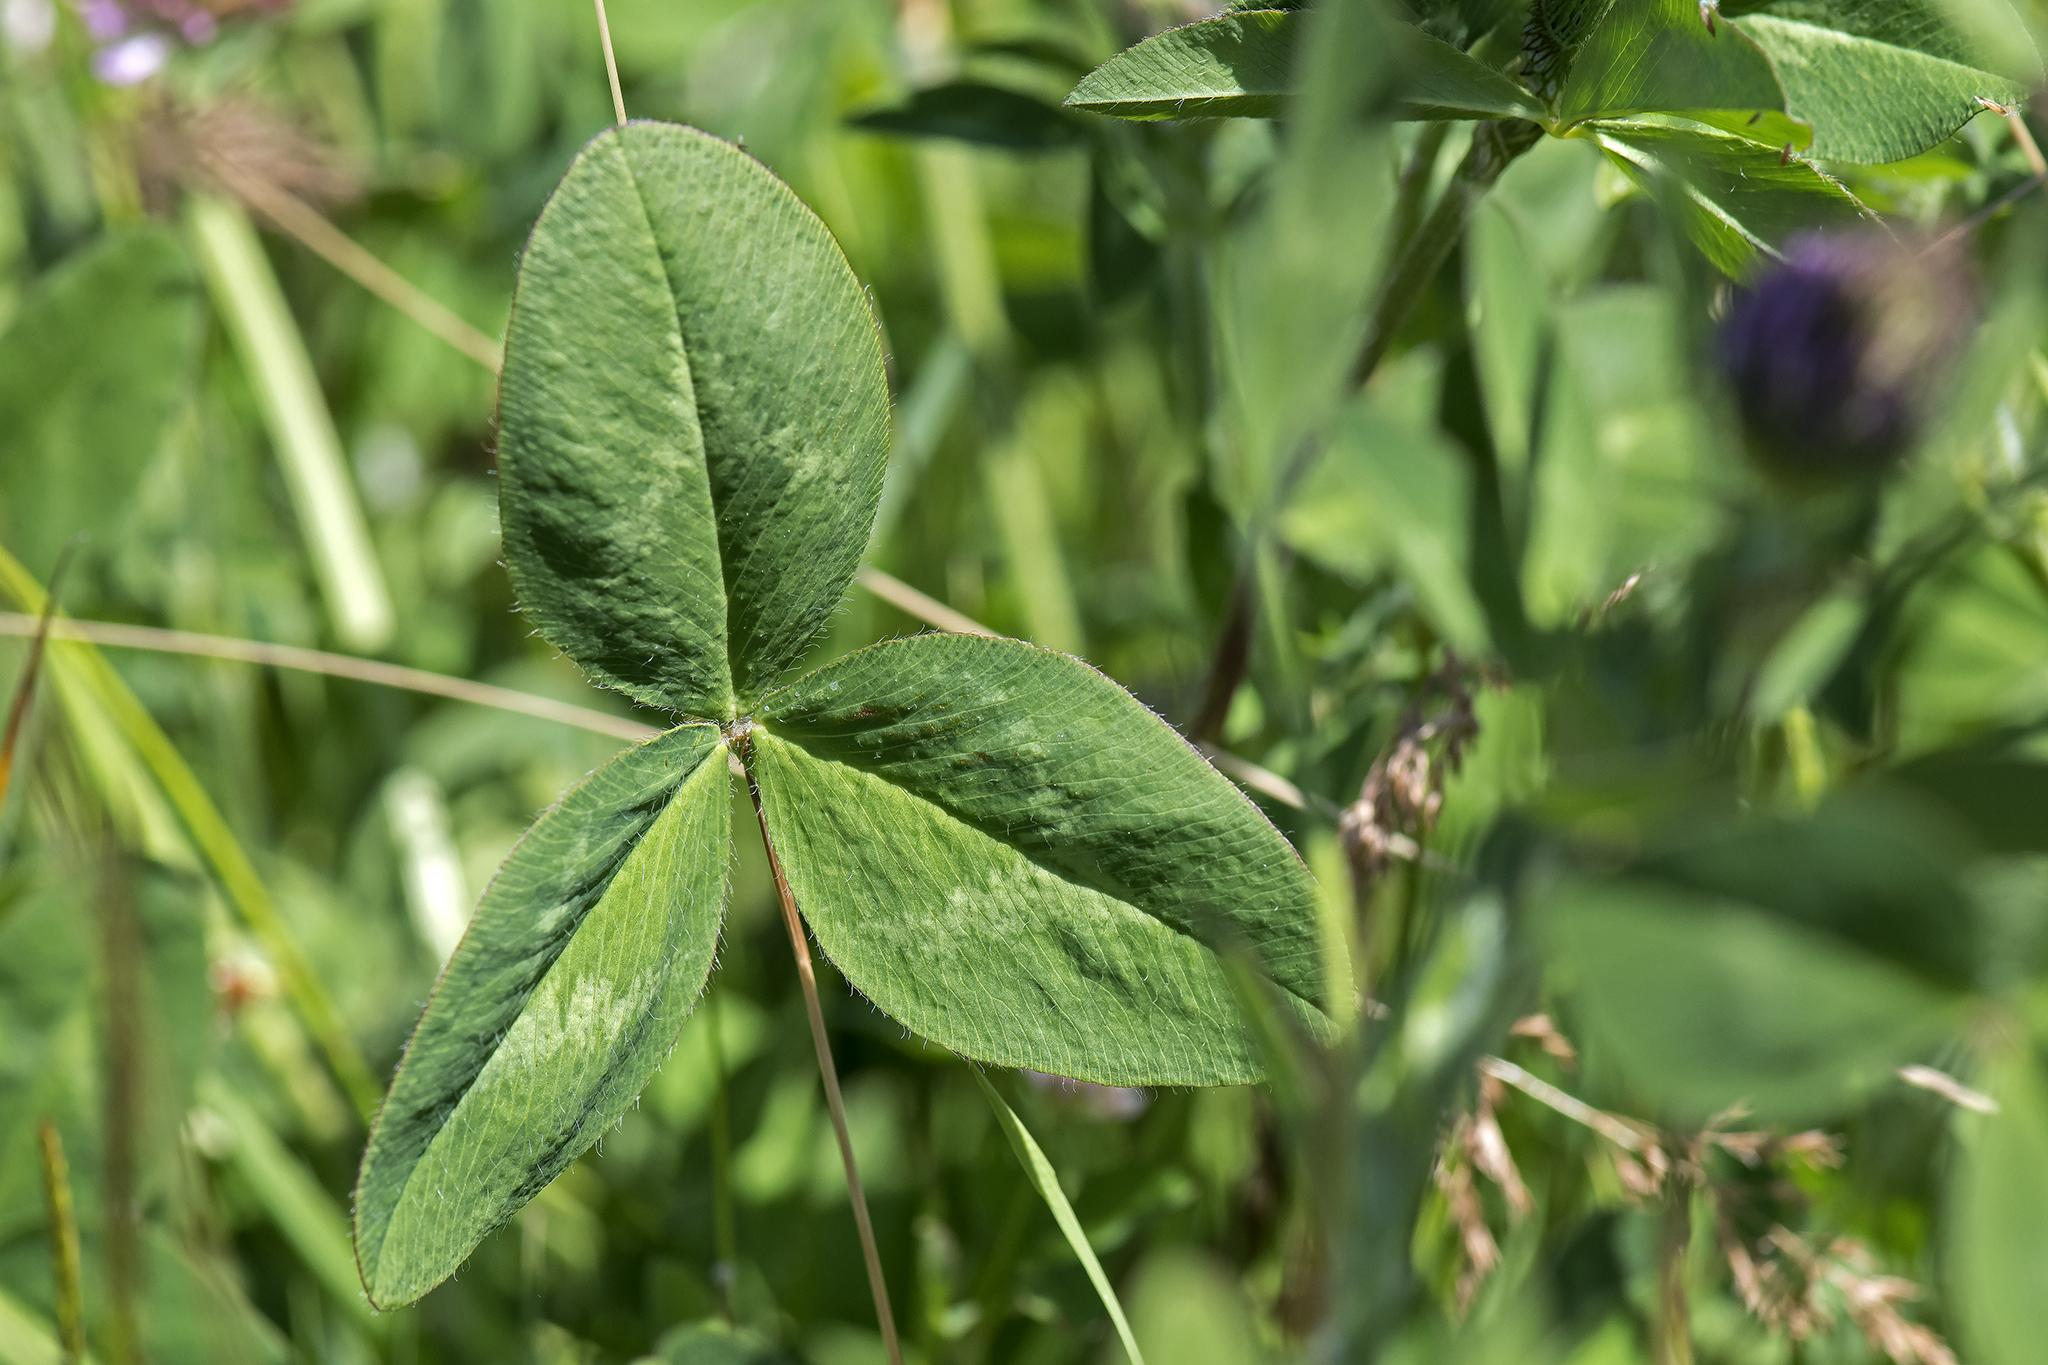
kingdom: Plantae
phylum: Tracheophyta
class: Magnoliopsida
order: Fabales
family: Fabaceae
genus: Trifolium
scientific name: Trifolium pratense
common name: Red clover
